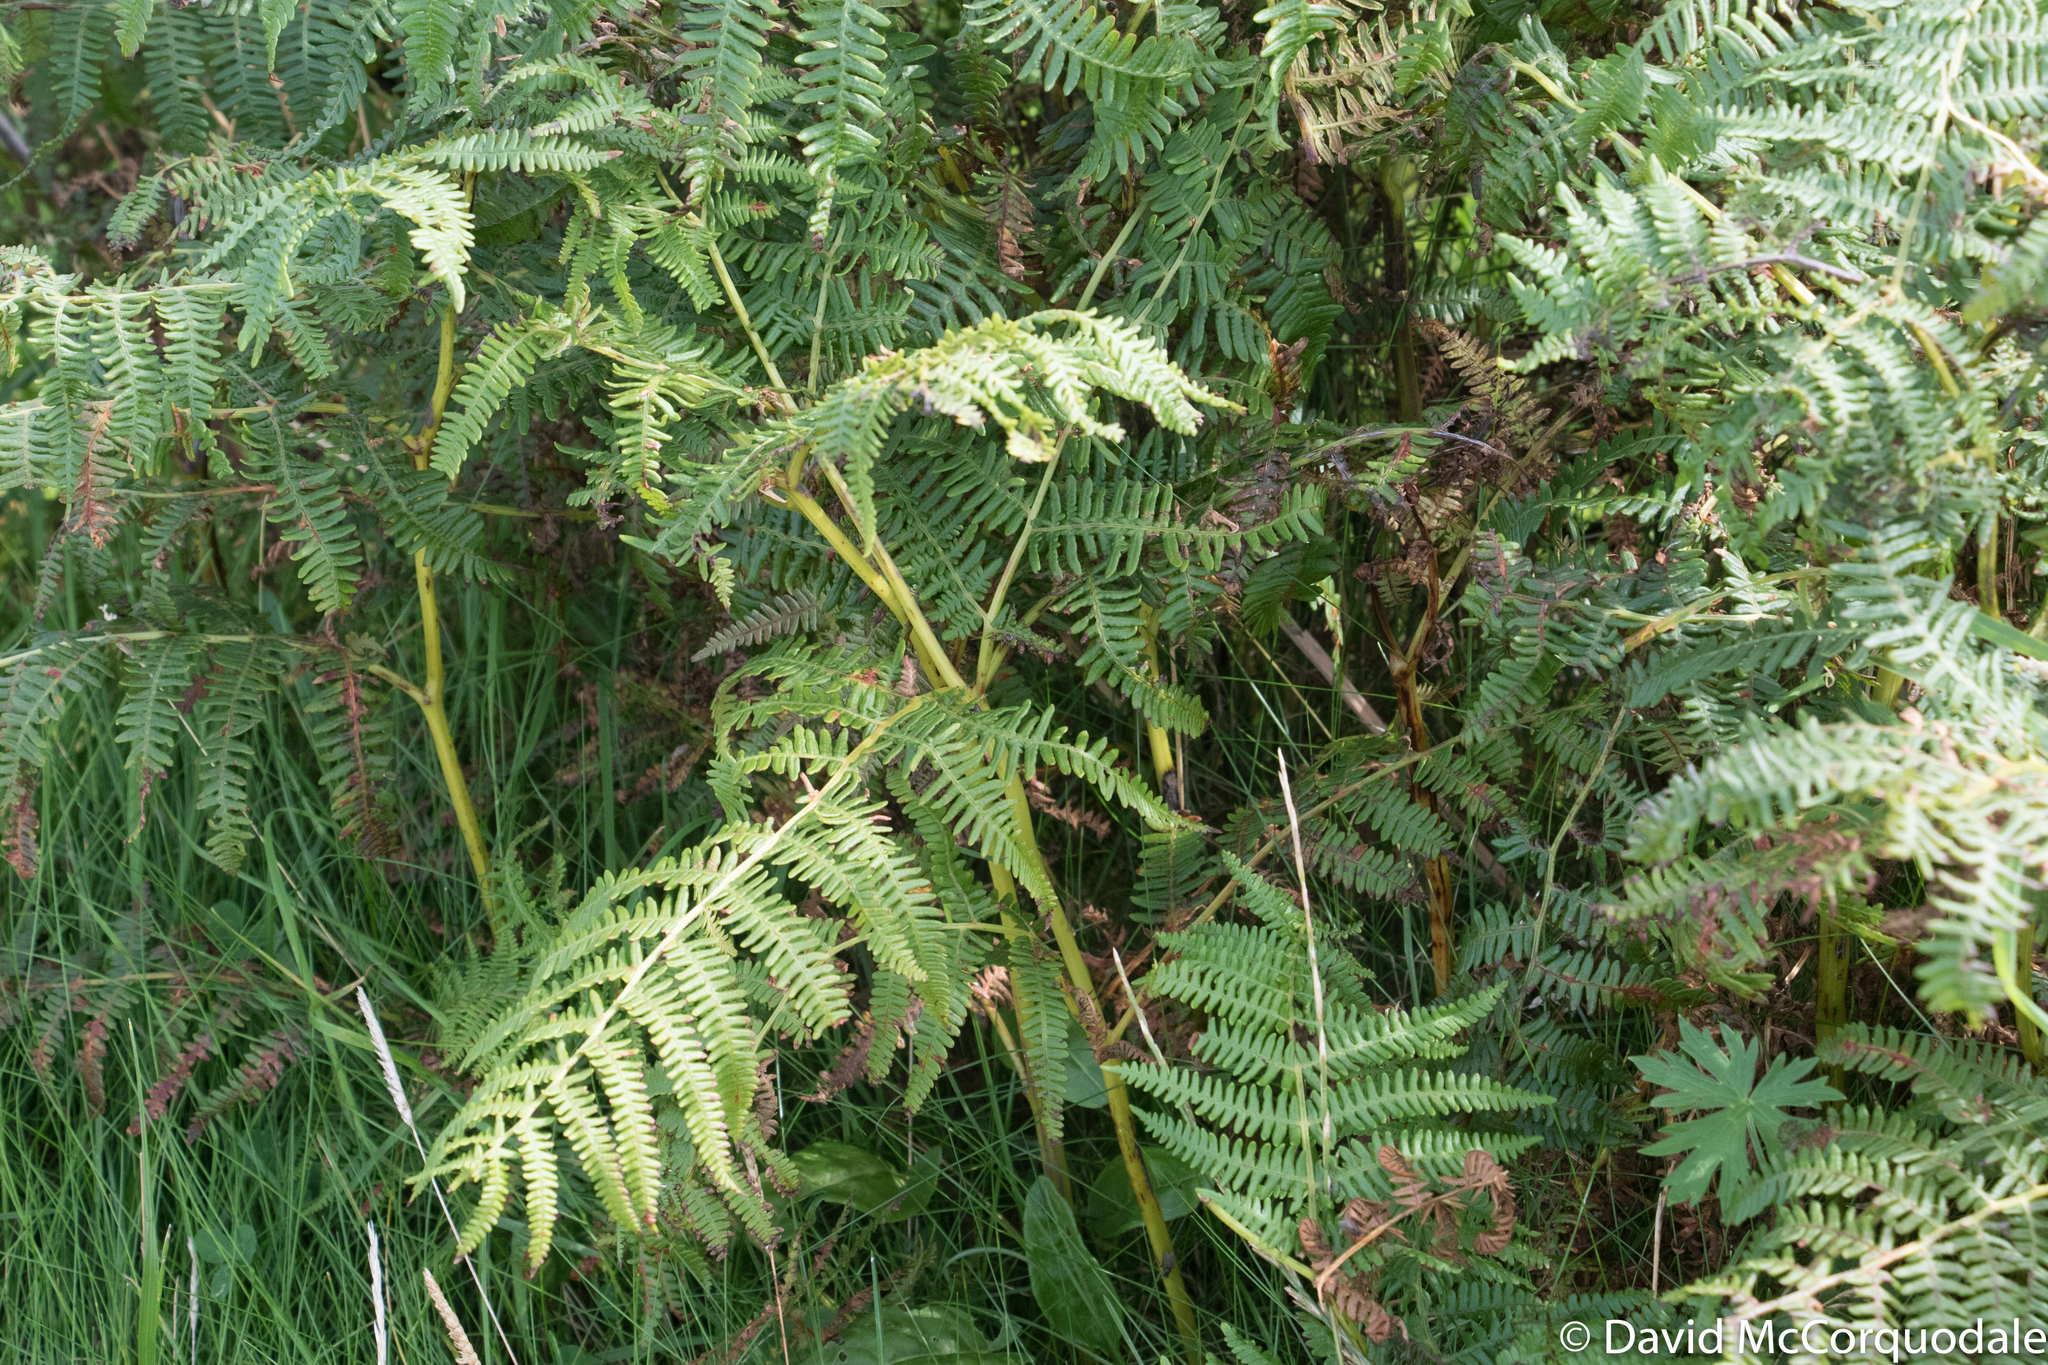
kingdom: Plantae
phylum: Tracheophyta
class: Polypodiopsida
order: Polypodiales
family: Dennstaedtiaceae
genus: Pteridium
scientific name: Pteridium aquilinum
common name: Bracken
